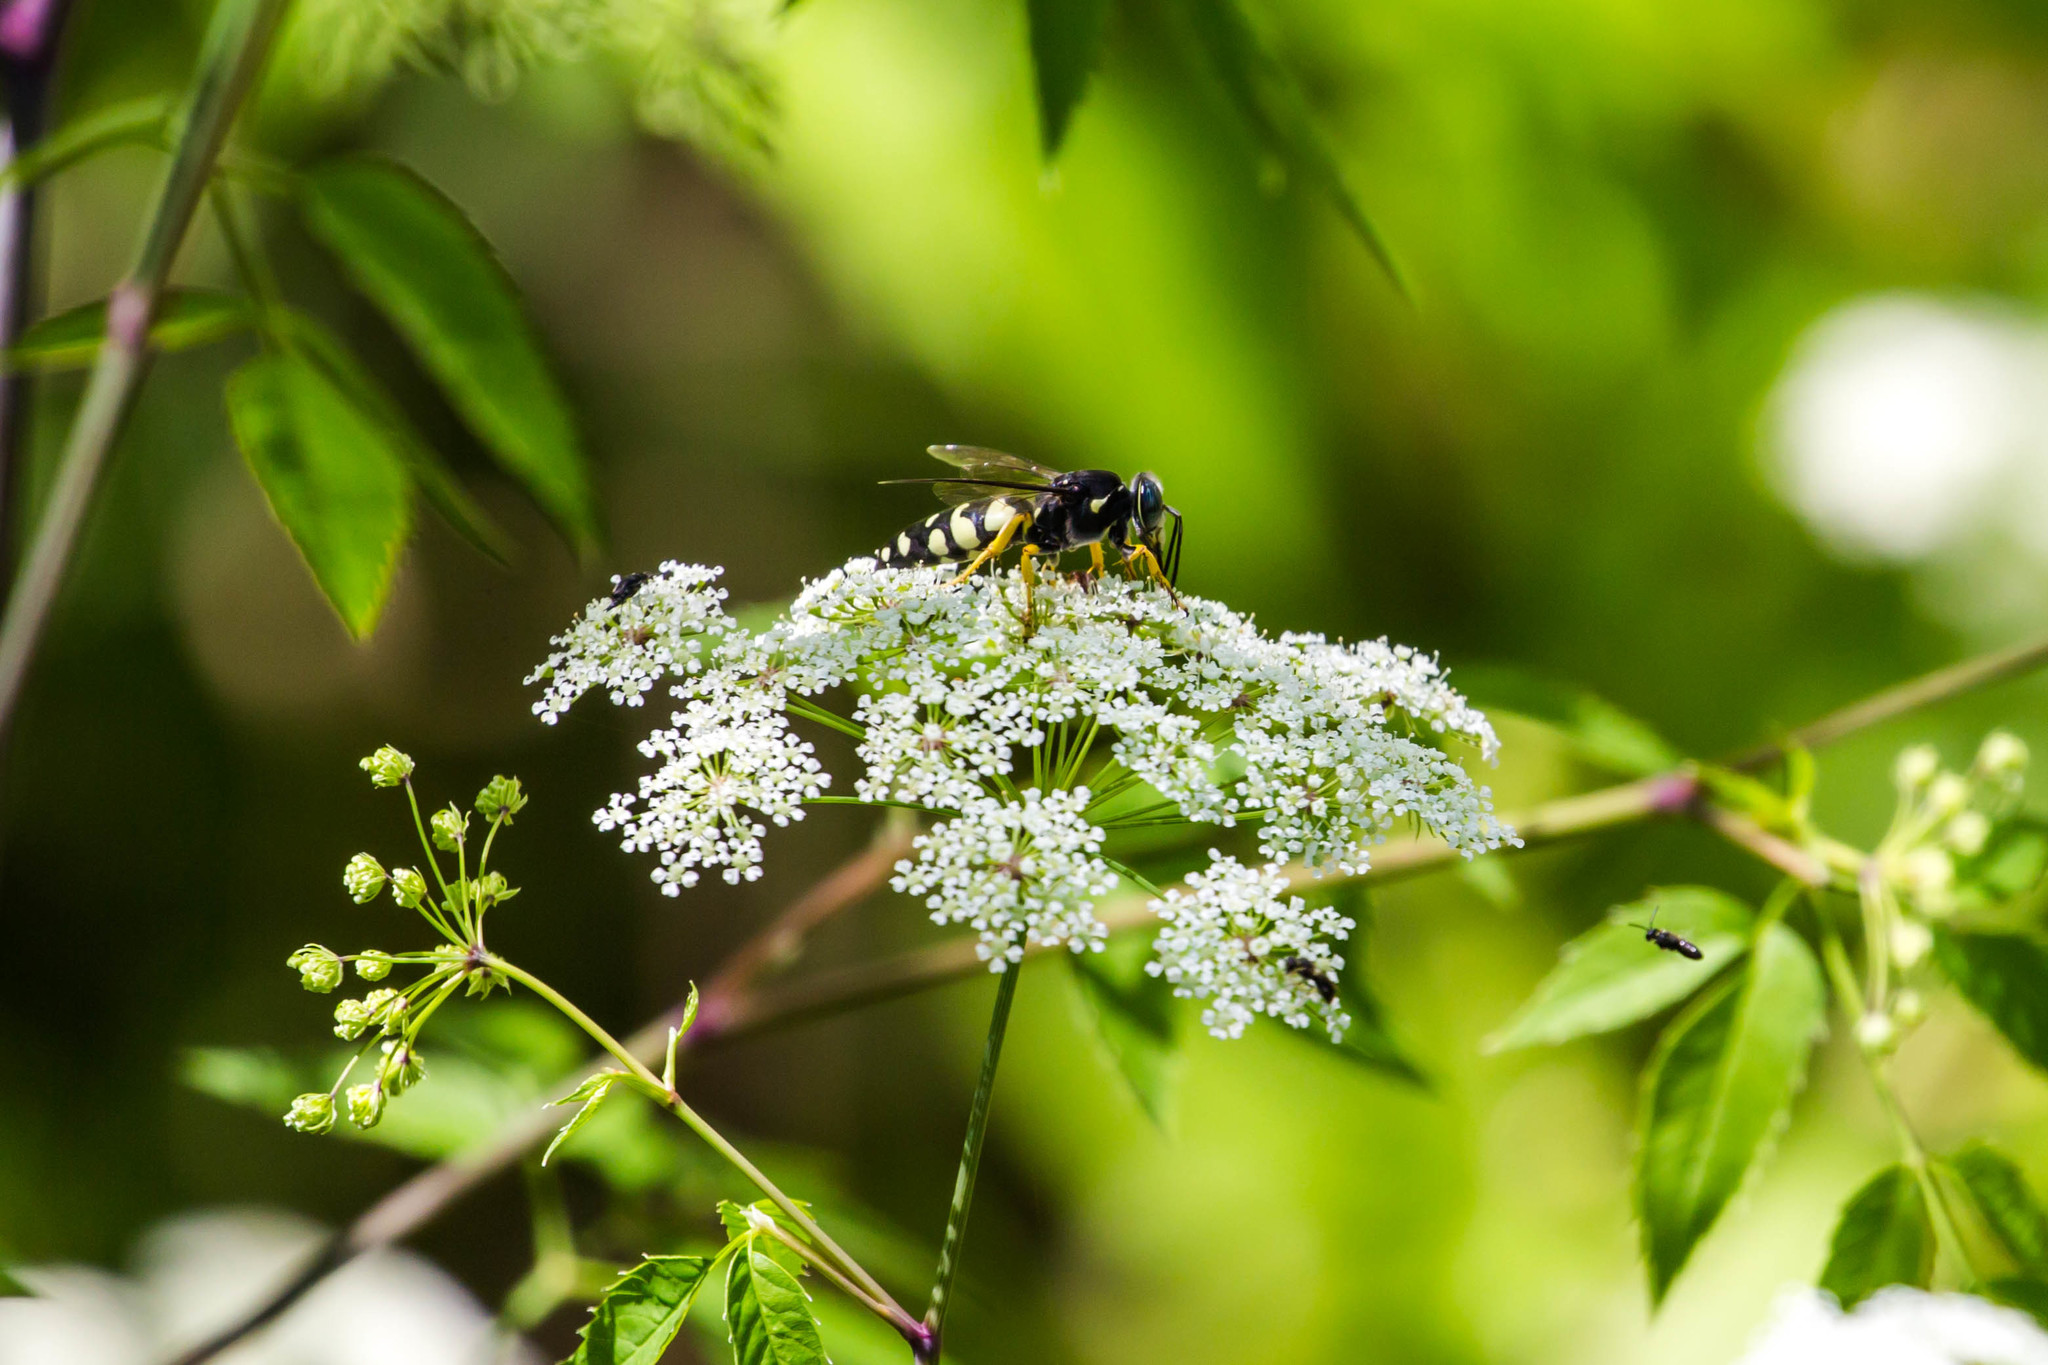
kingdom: Animalia
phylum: Arthropoda
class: Insecta
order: Hymenoptera
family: Crabronidae
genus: Stictia
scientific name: Stictia carolina
